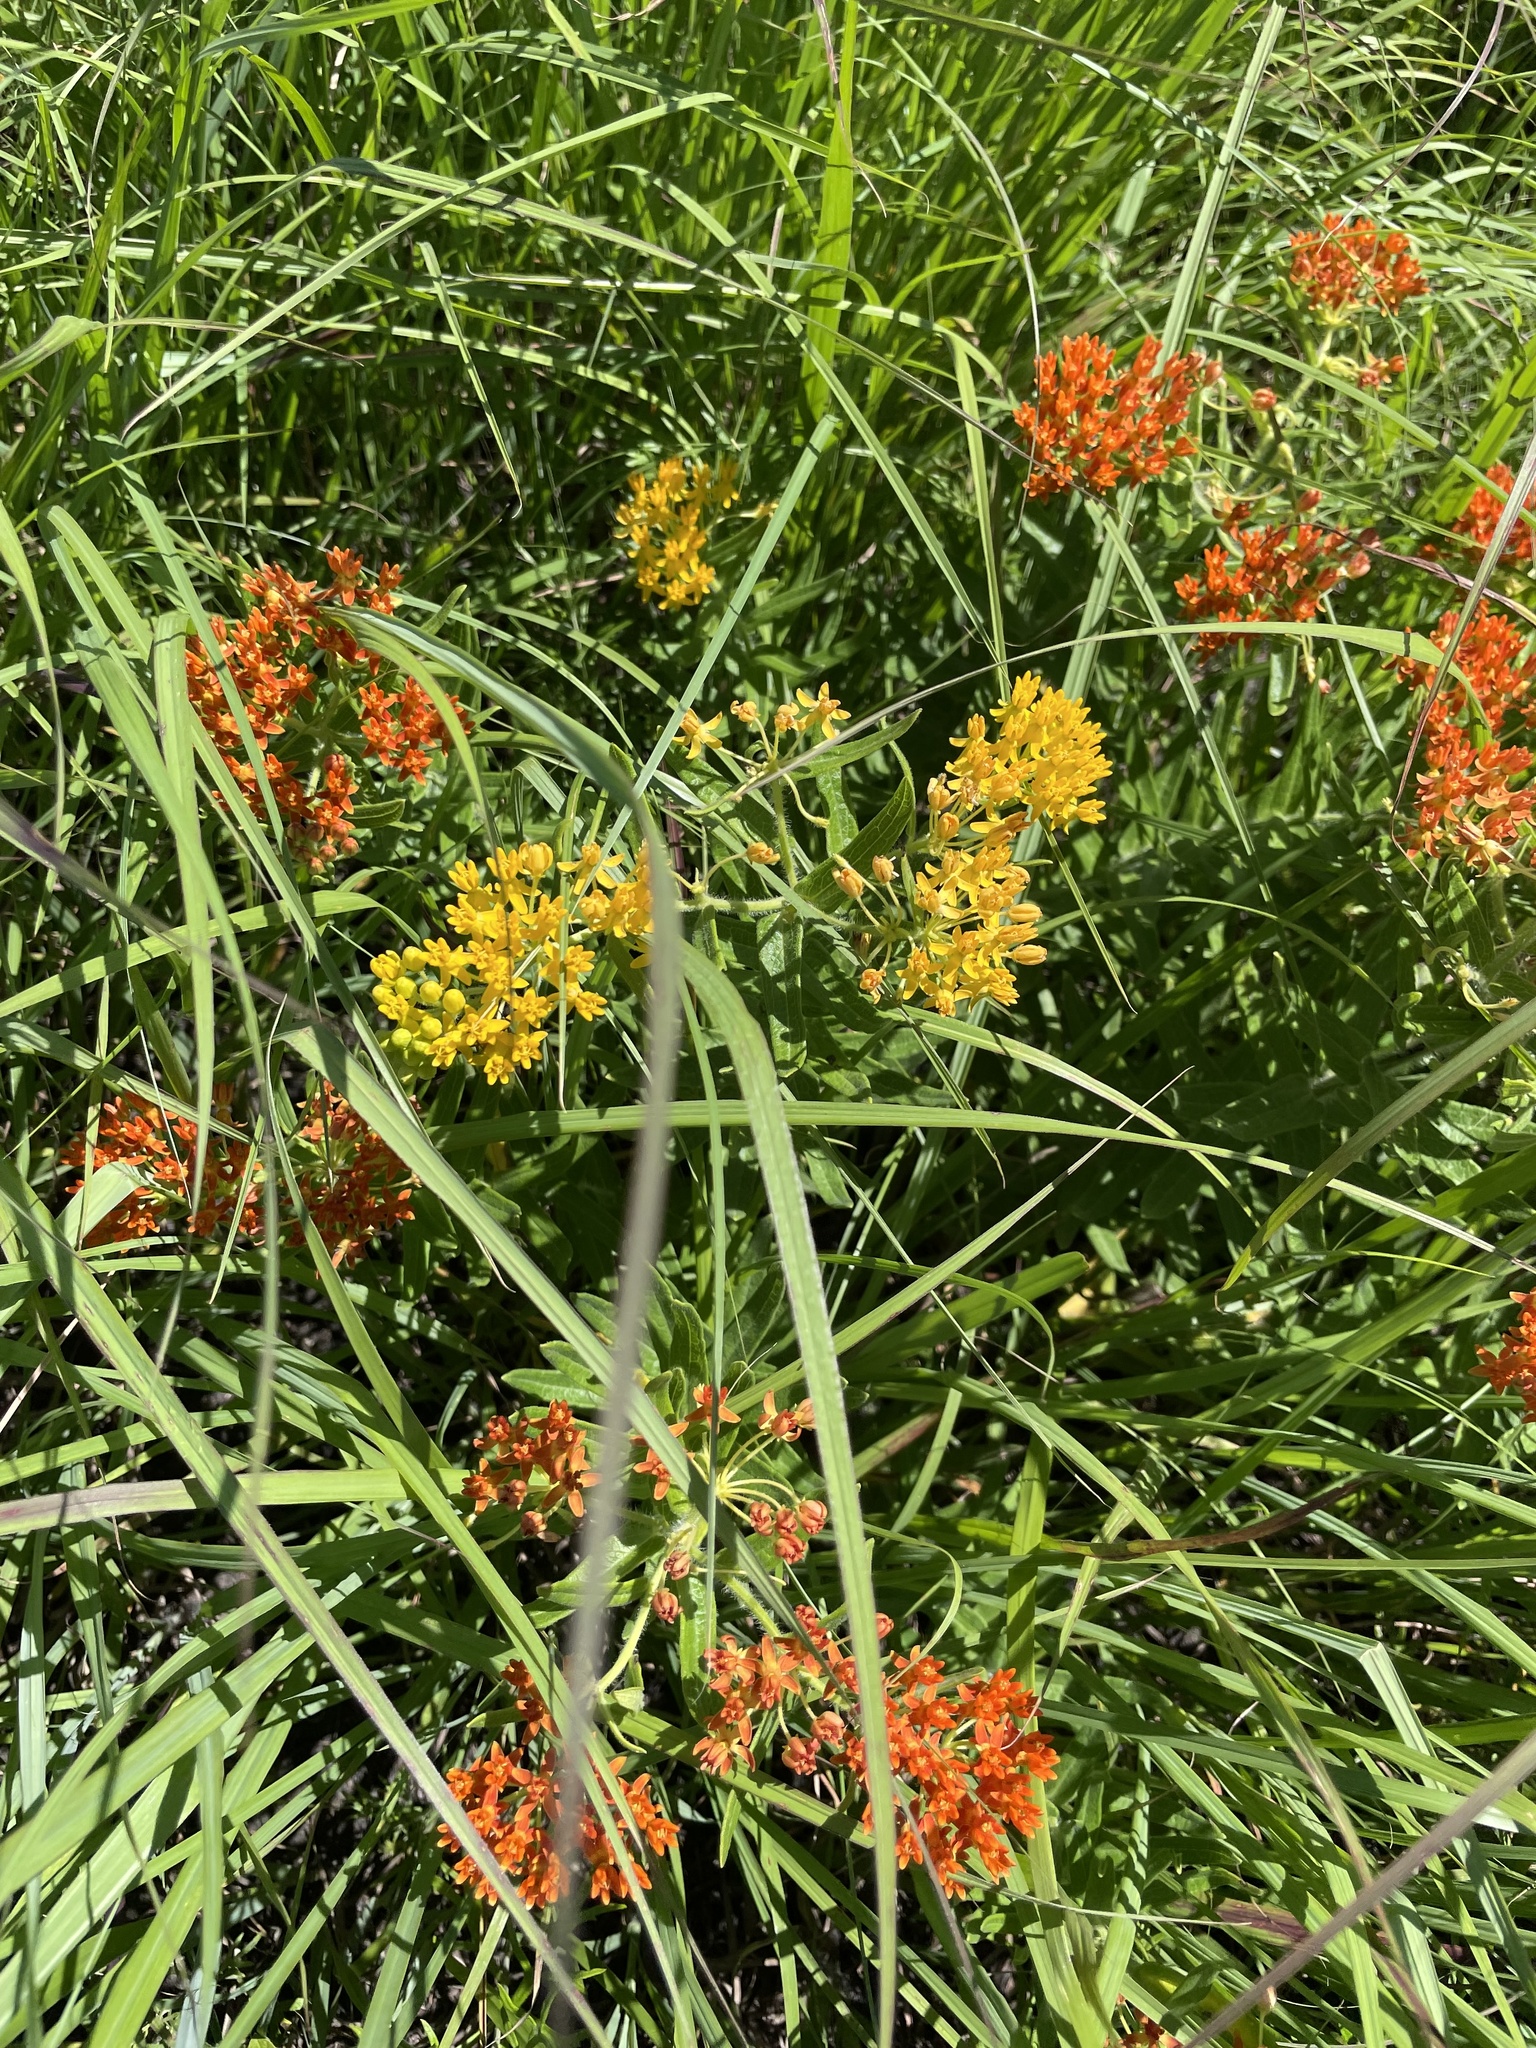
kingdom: Plantae
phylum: Tracheophyta
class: Magnoliopsida
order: Gentianales
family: Apocynaceae
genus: Asclepias
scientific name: Asclepias tuberosa
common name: Butterfly milkweed
